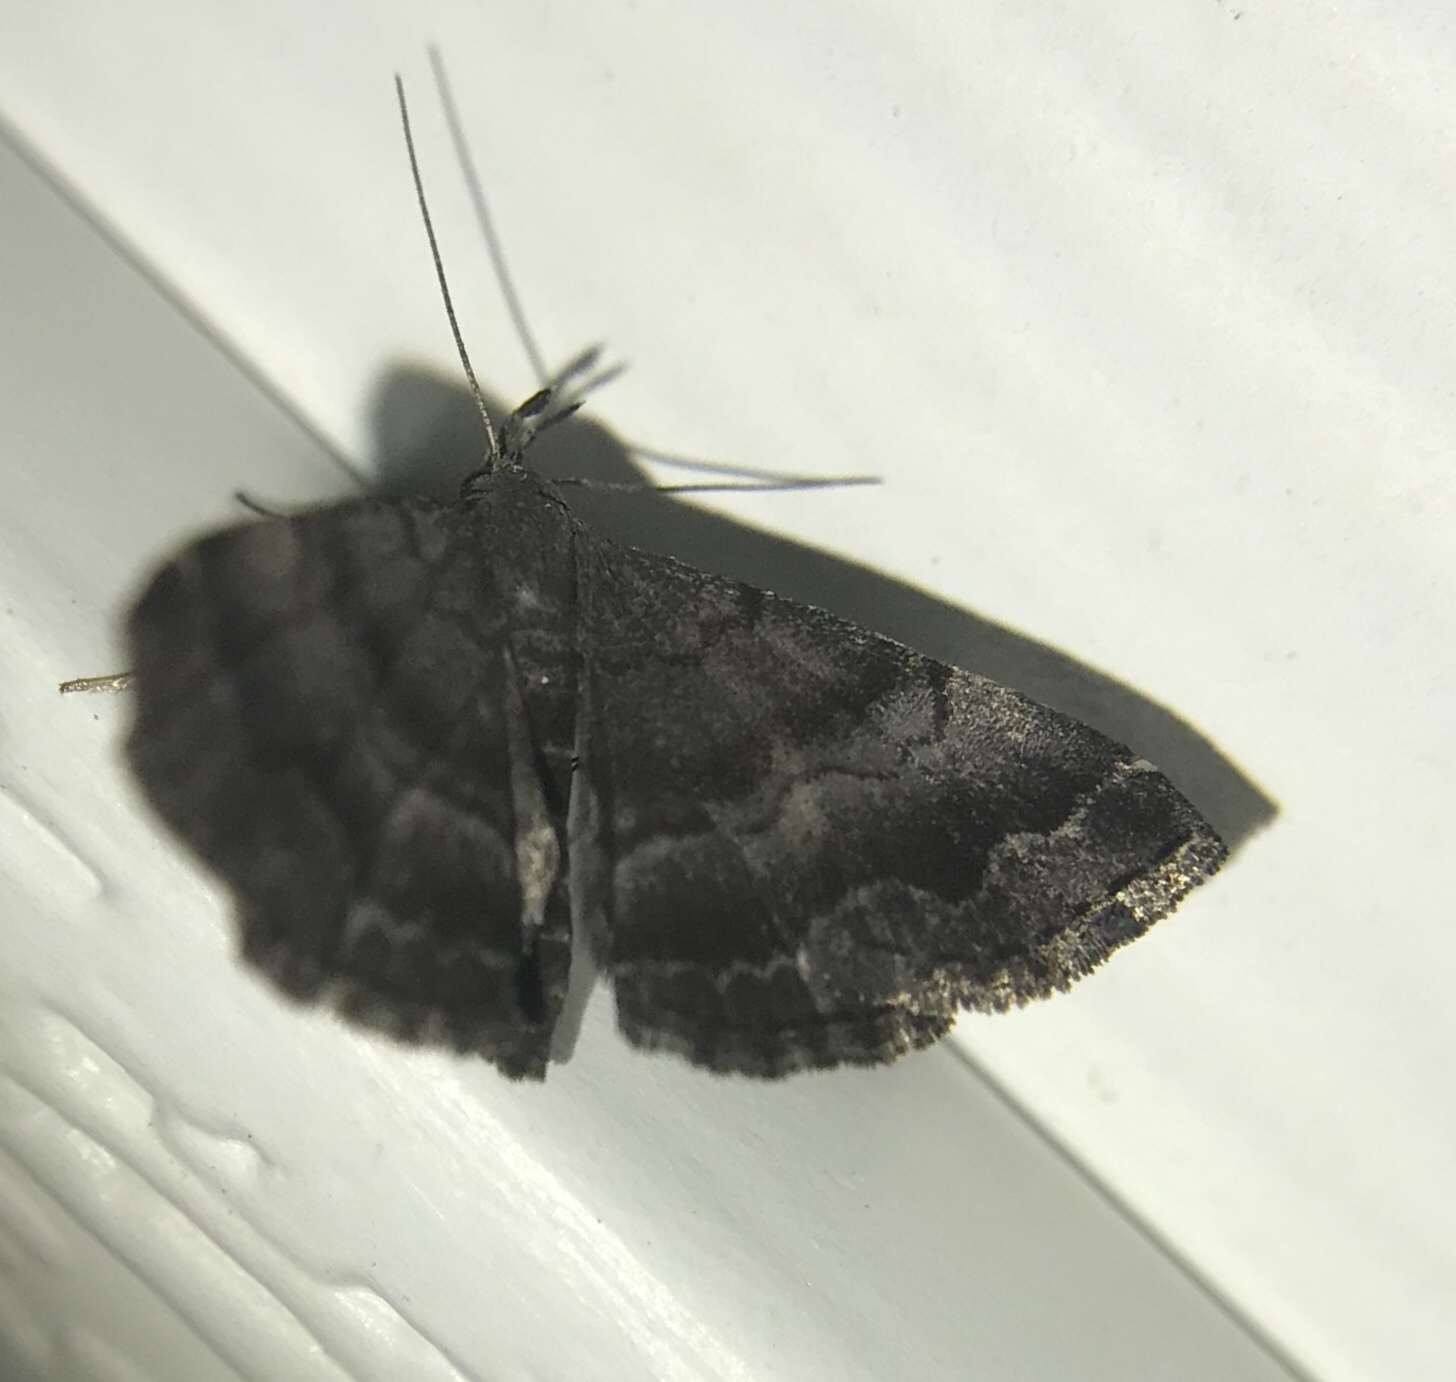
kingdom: Animalia
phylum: Arthropoda
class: Insecta
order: Lepidoptera
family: Erebidae
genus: Phalaenostola
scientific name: Phalaenostola larentioides
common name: Black-banded owlet
